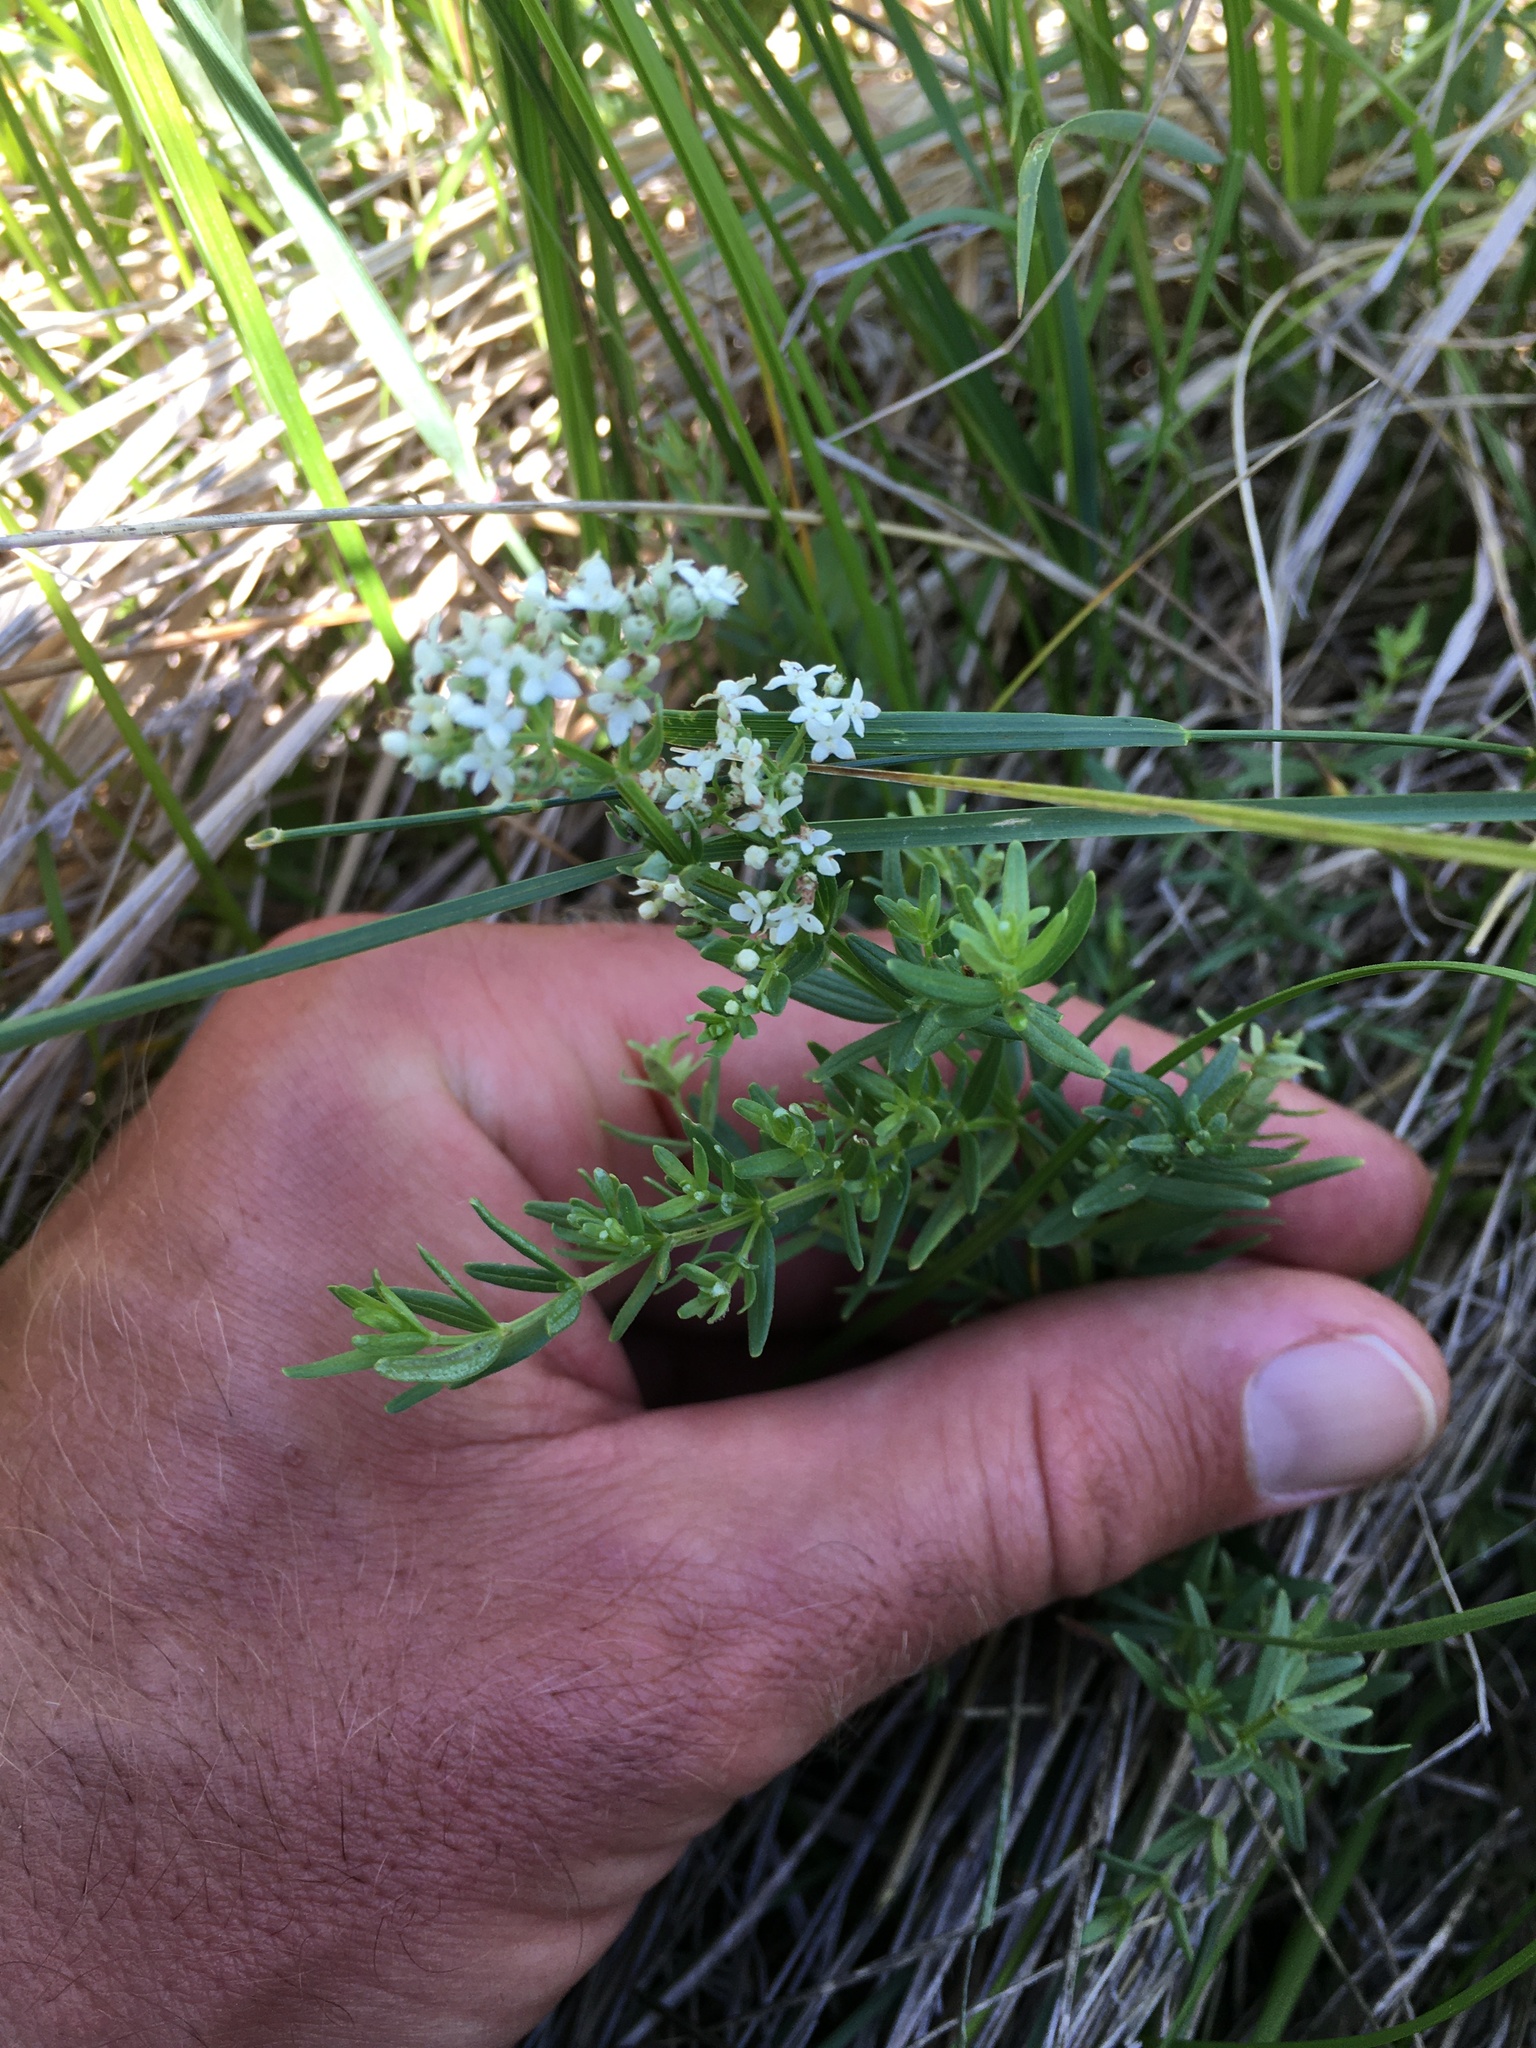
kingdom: Plantae
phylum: Tracheophyta
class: Magnoliopsida
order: Gentianales
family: Rubiaceae
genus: Galium
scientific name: Galium boreale
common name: Northern bedstraw
